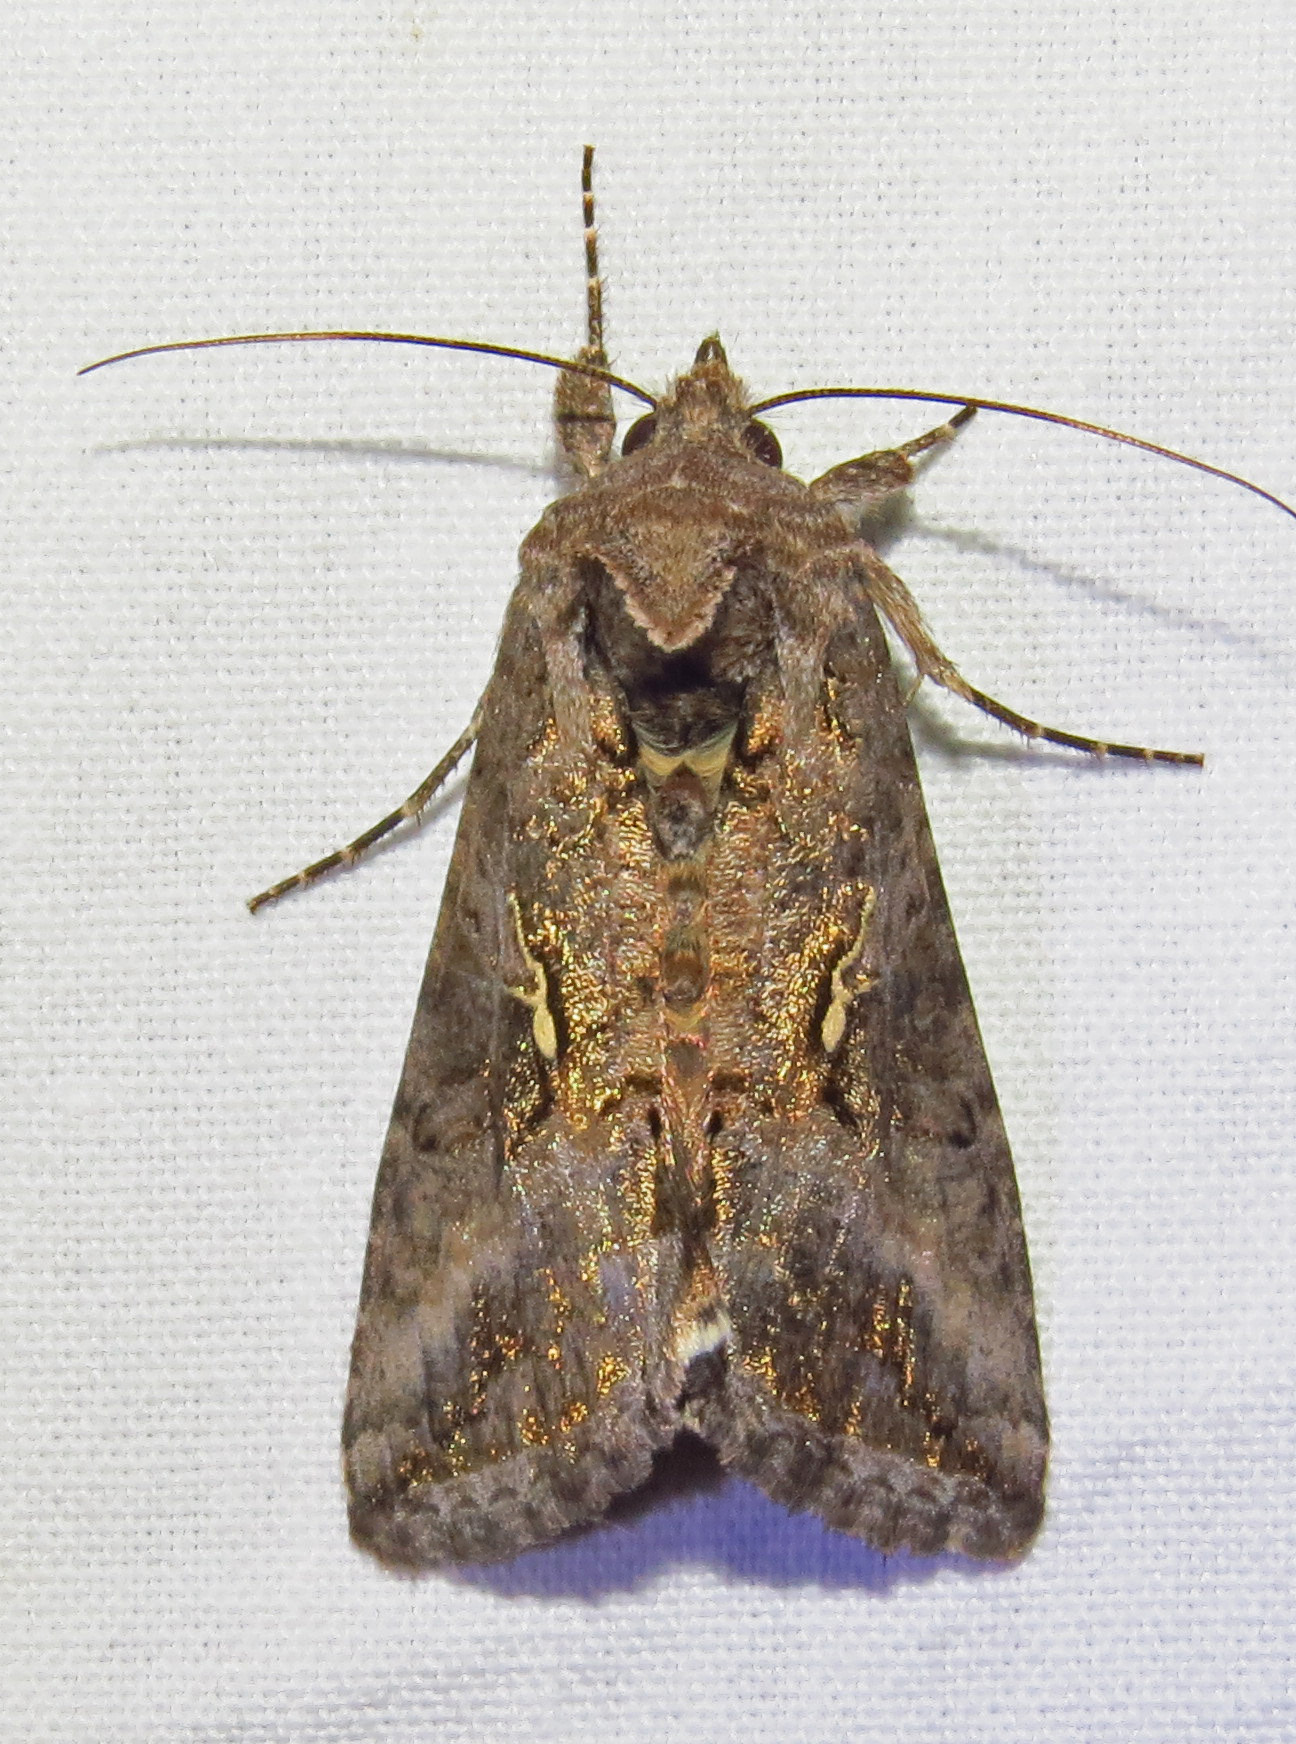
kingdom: Animalia
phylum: Arthropoda
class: Insecta
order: Lepidoptera
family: Noctuidae
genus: Rachiplusia
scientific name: Rachiplusia ou
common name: Gray looper moth
